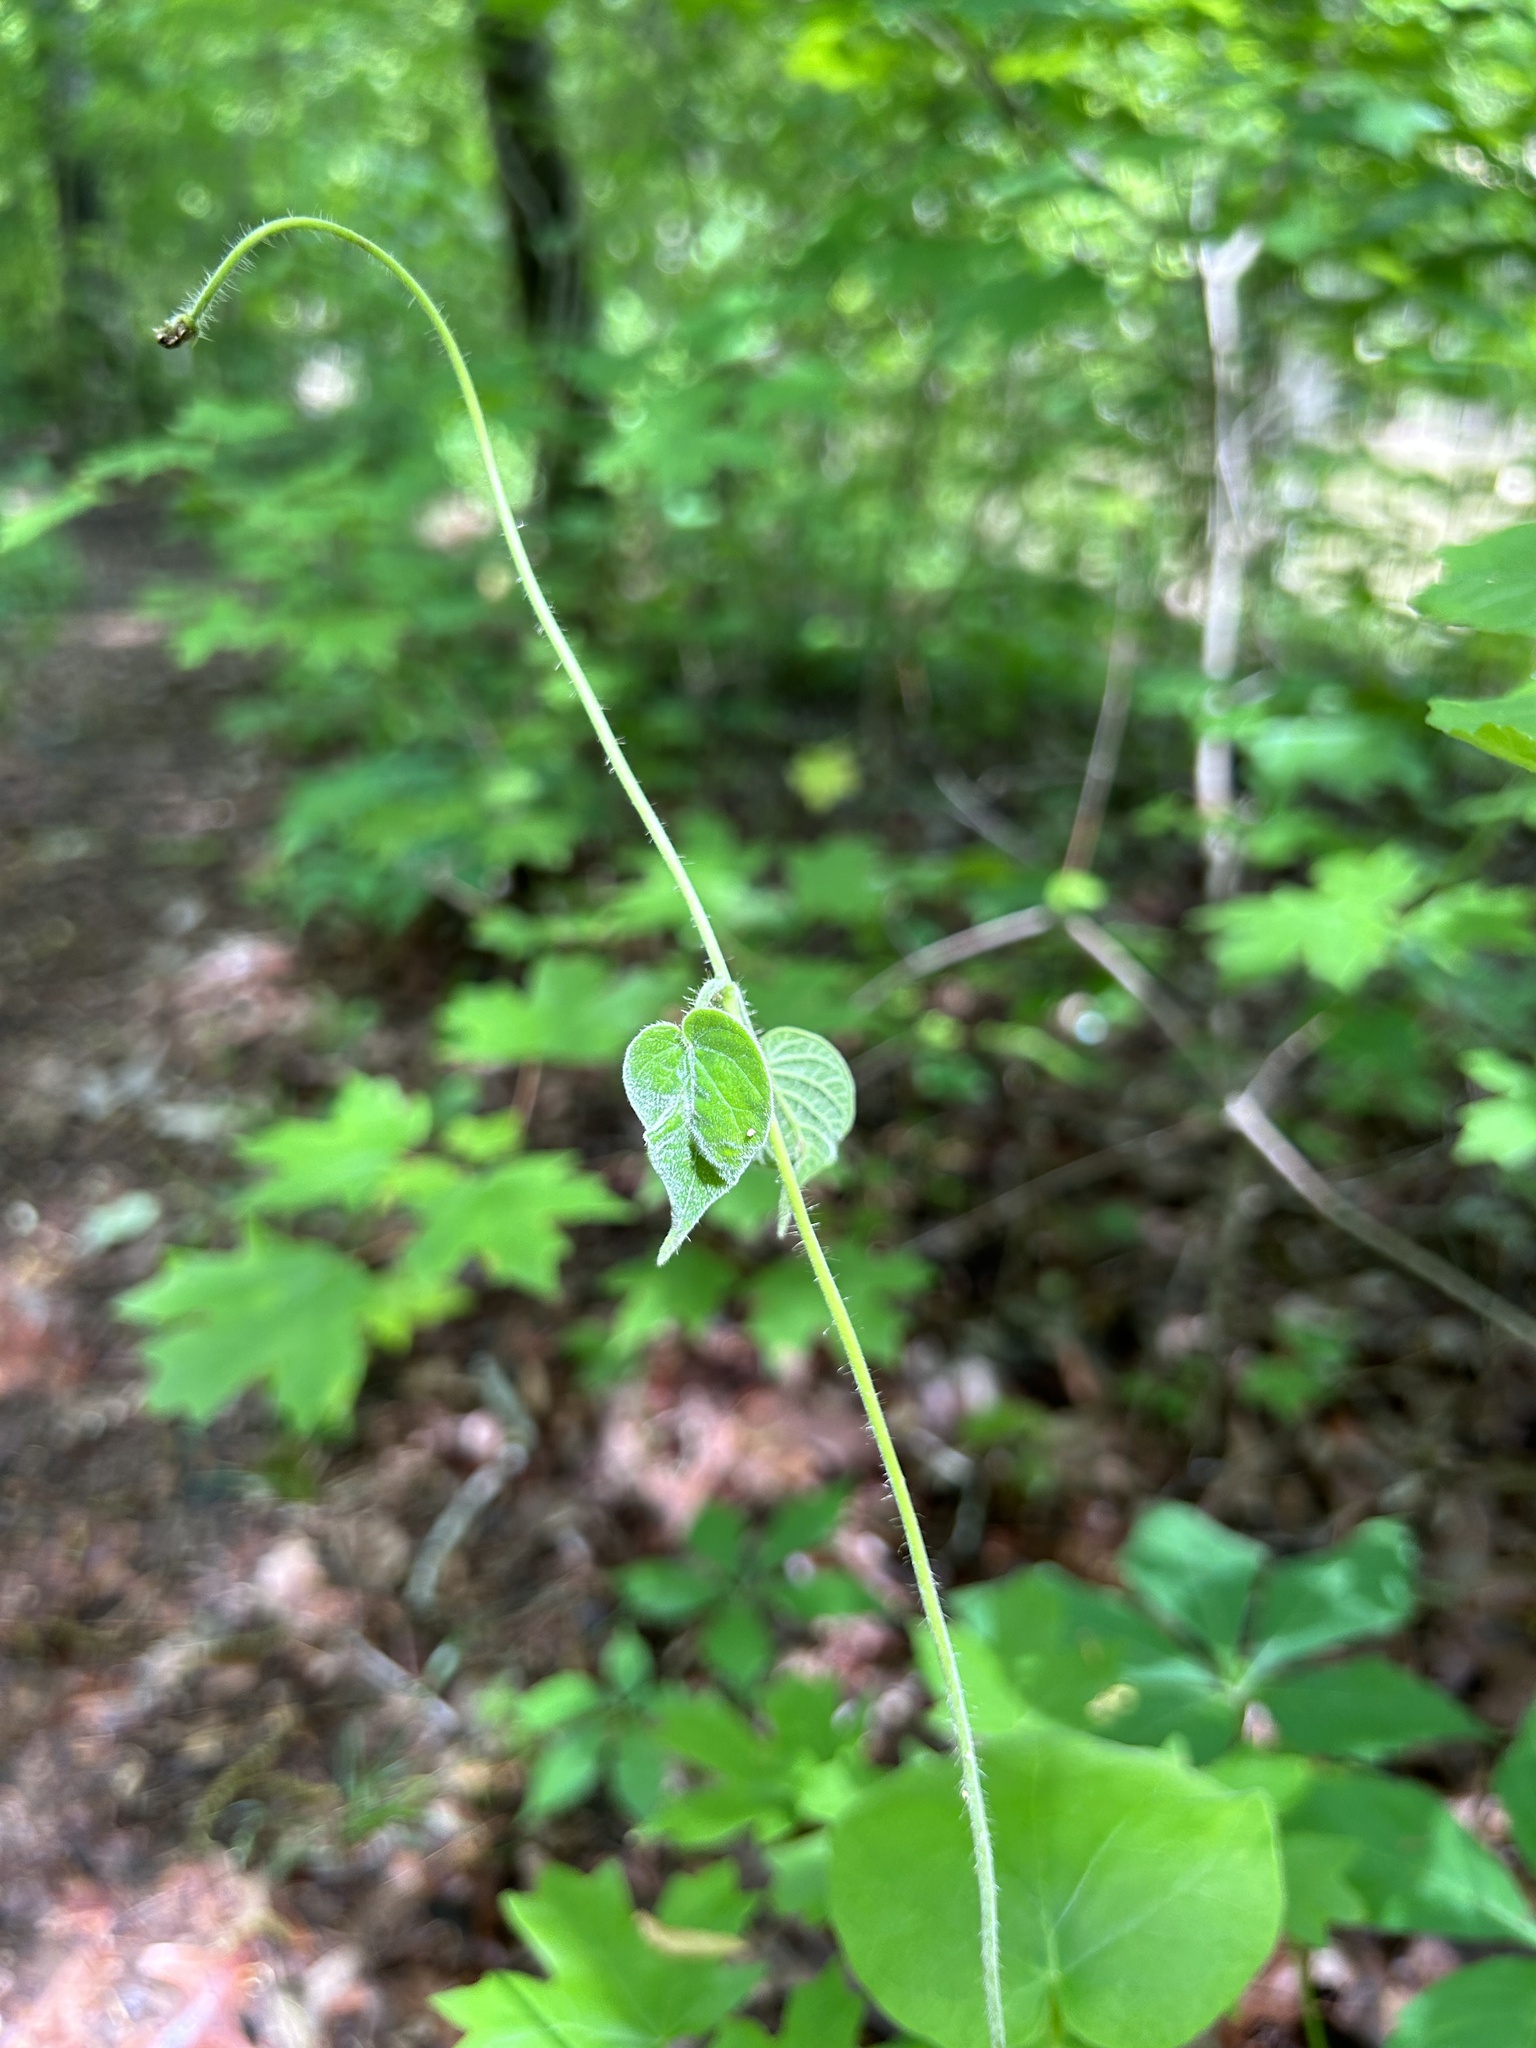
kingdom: Plantae
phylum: Tracheophyta
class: Magnoliopsida
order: Gentianales
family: Apocynaceae
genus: Matelea
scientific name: Matelea carolinensis
